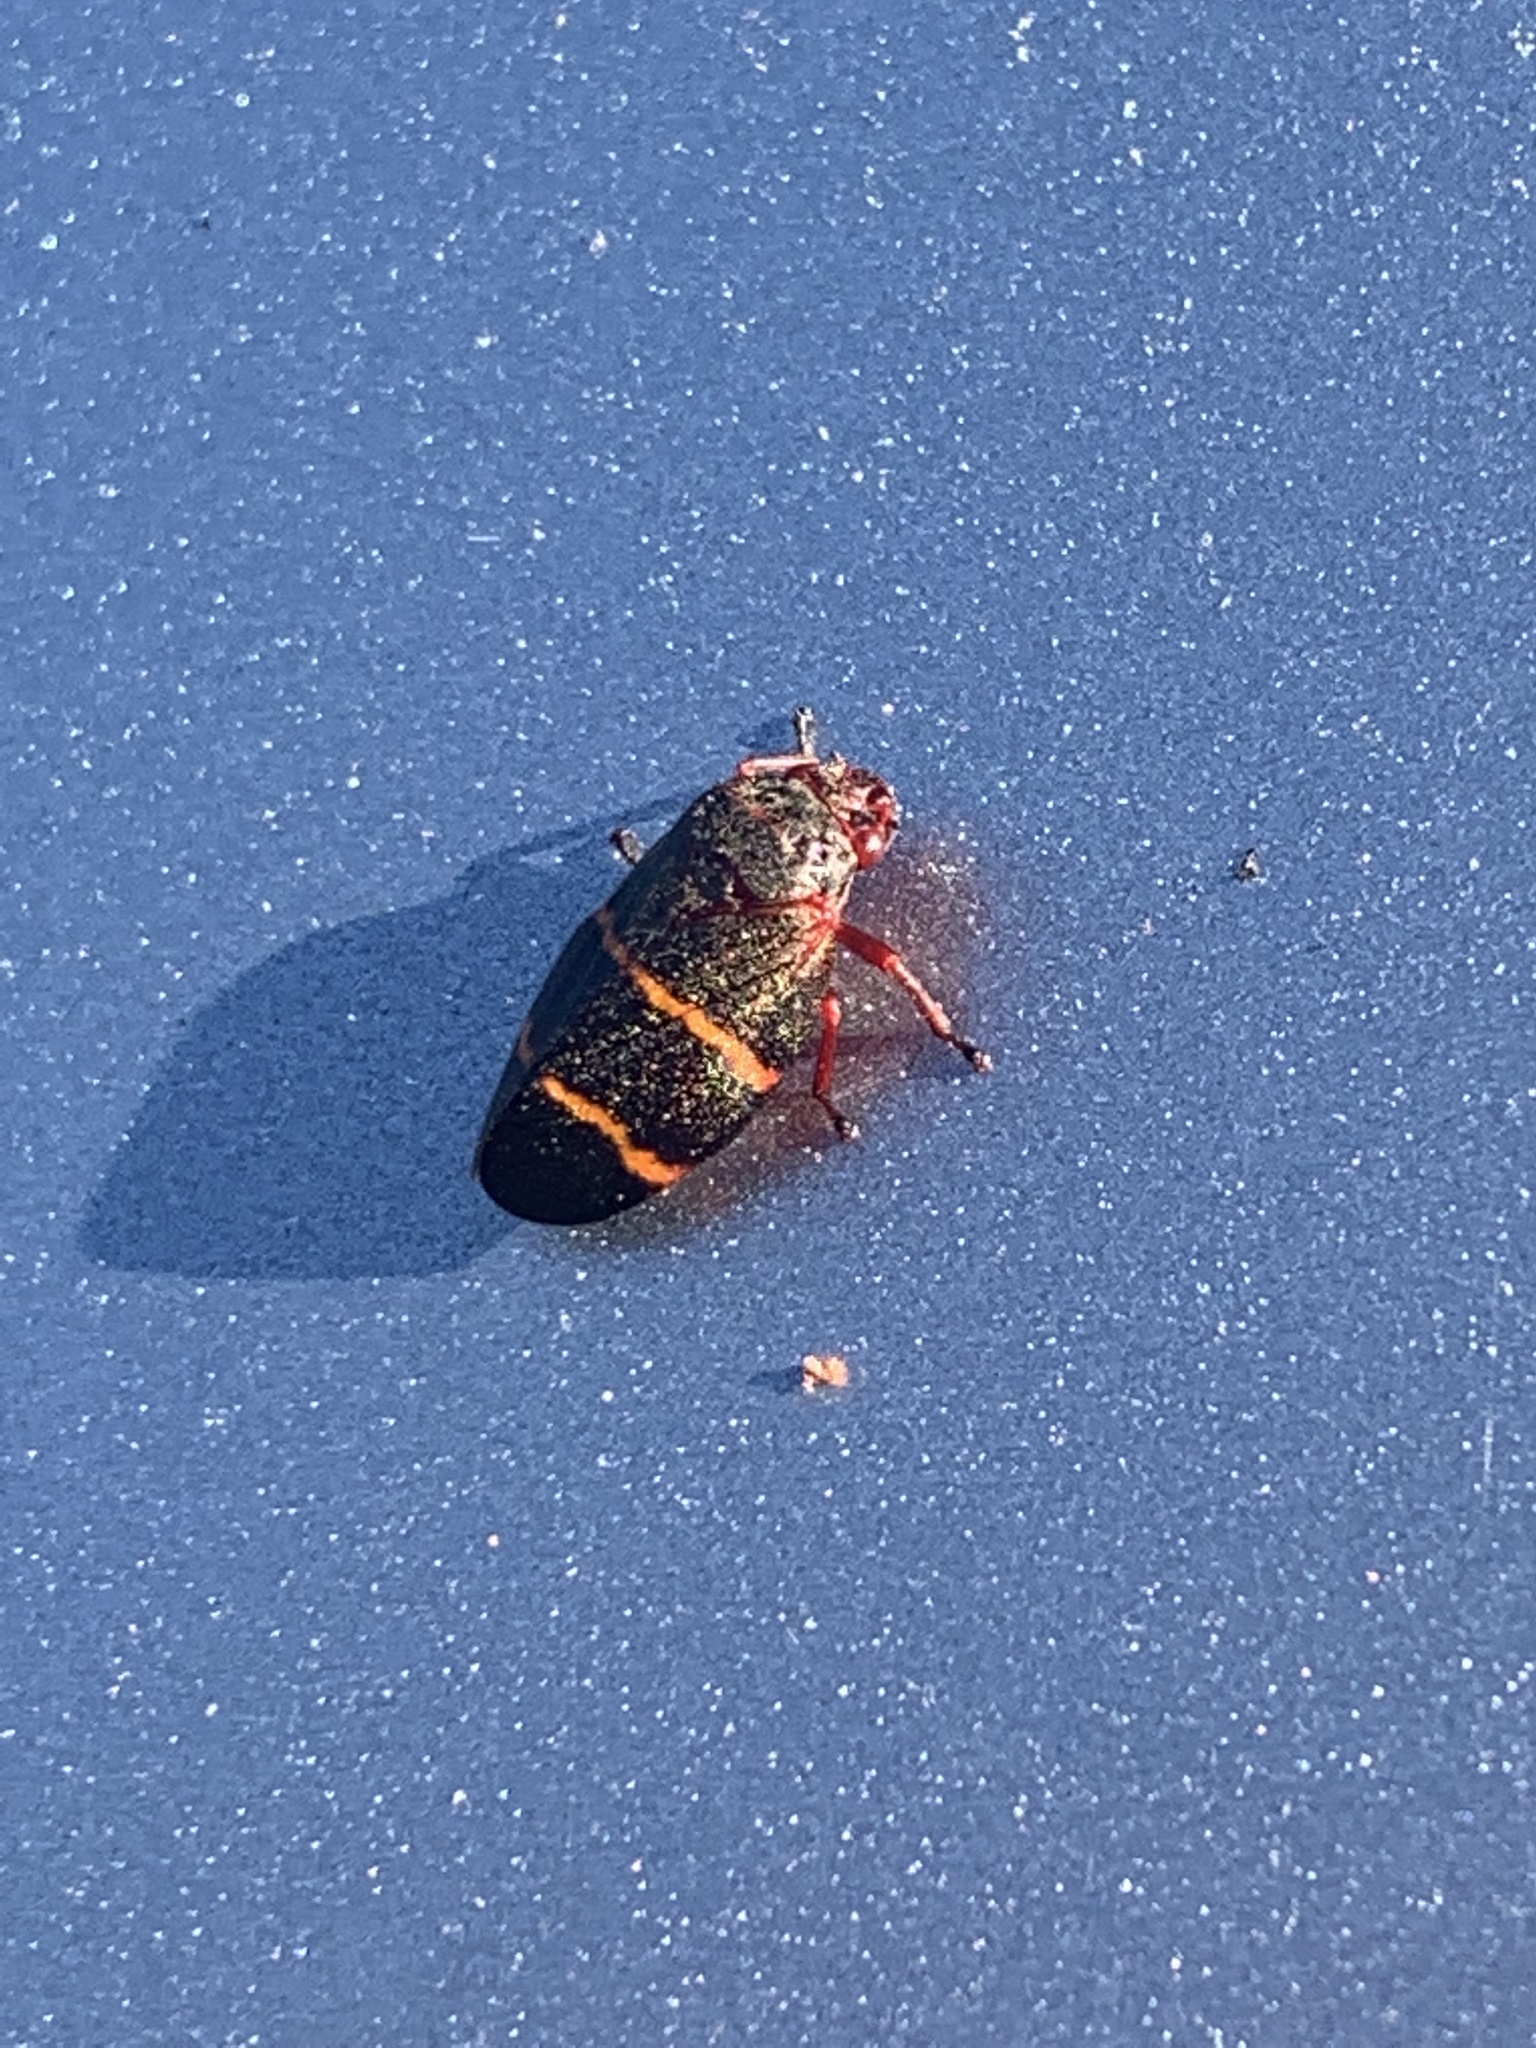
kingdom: Animalia
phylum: Arthropoda
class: Insecta
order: Hemiptera
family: Cercopidae
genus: Prosapia
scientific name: Prosapia bicincta
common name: Twolined spittlebug
